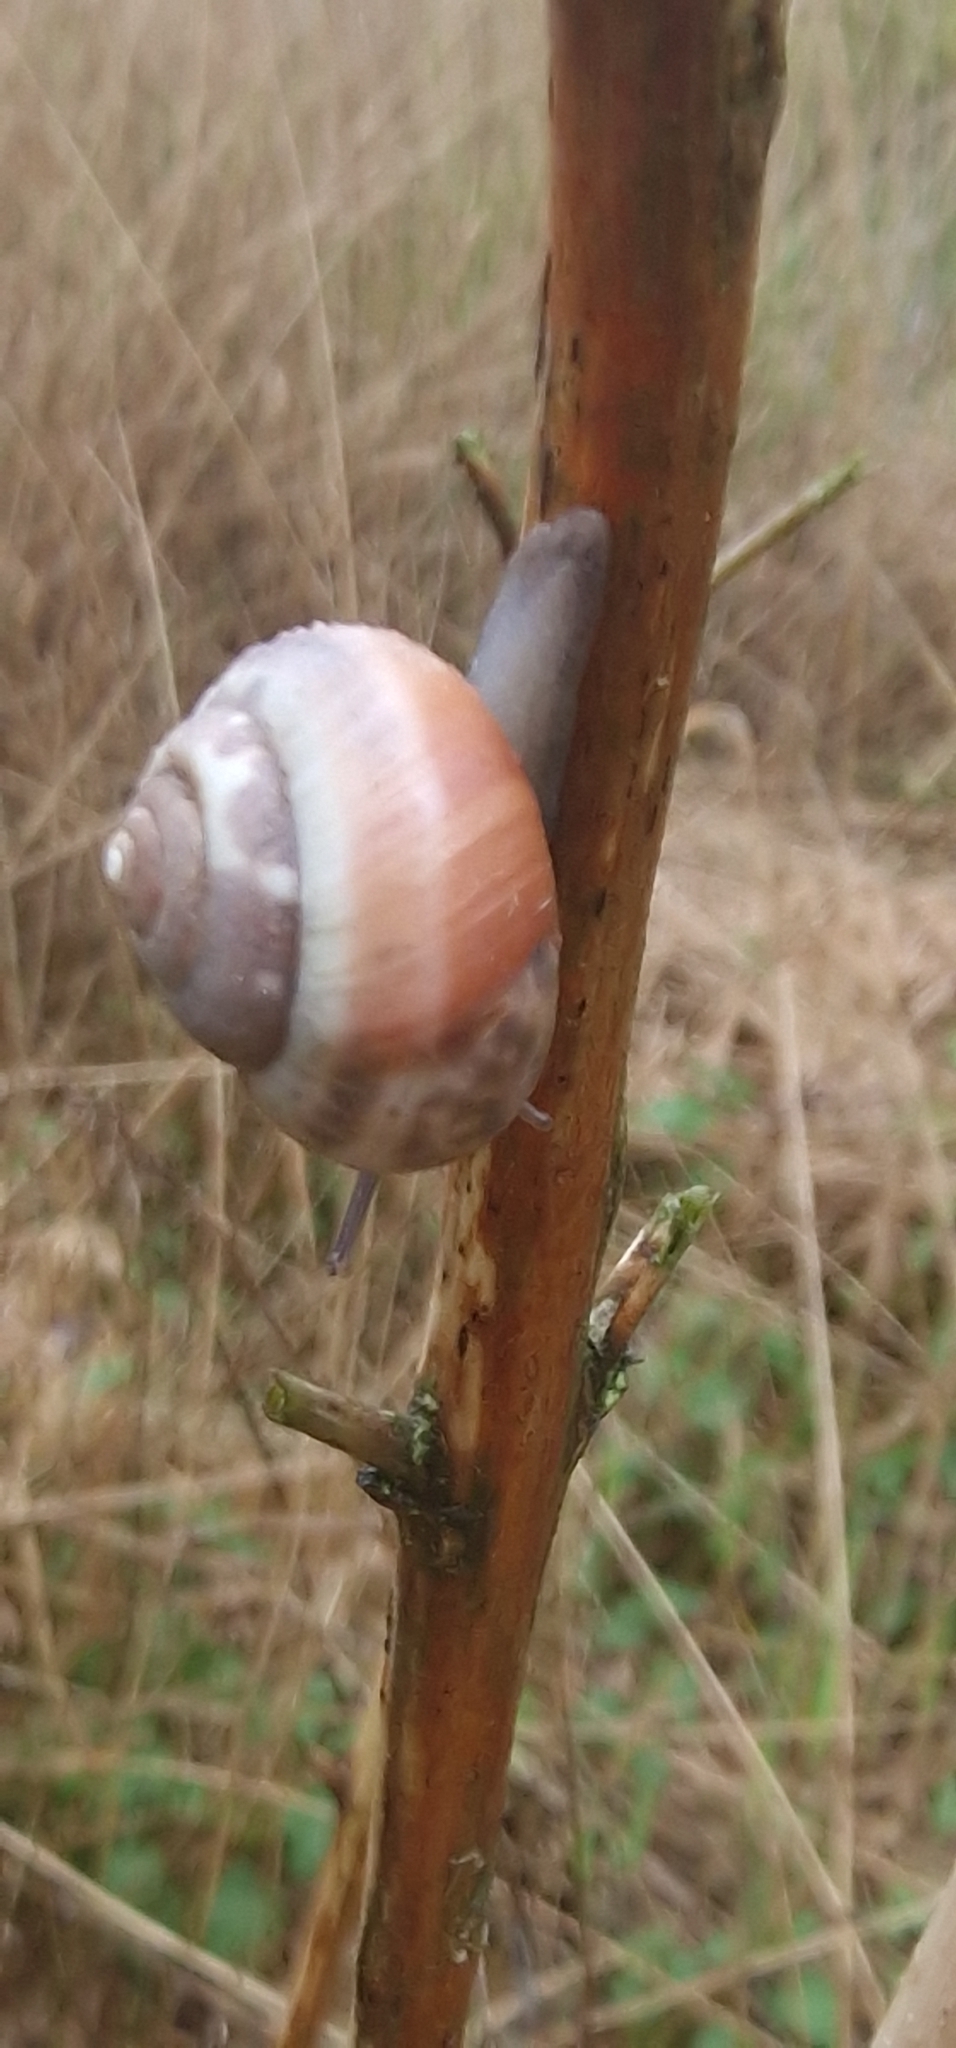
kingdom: Animalia
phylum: Mollusca
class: Gastropoda
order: Stylommatophora
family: Hygromiidae
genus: Monacha
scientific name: Monacha cantiana
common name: Kentish snail
